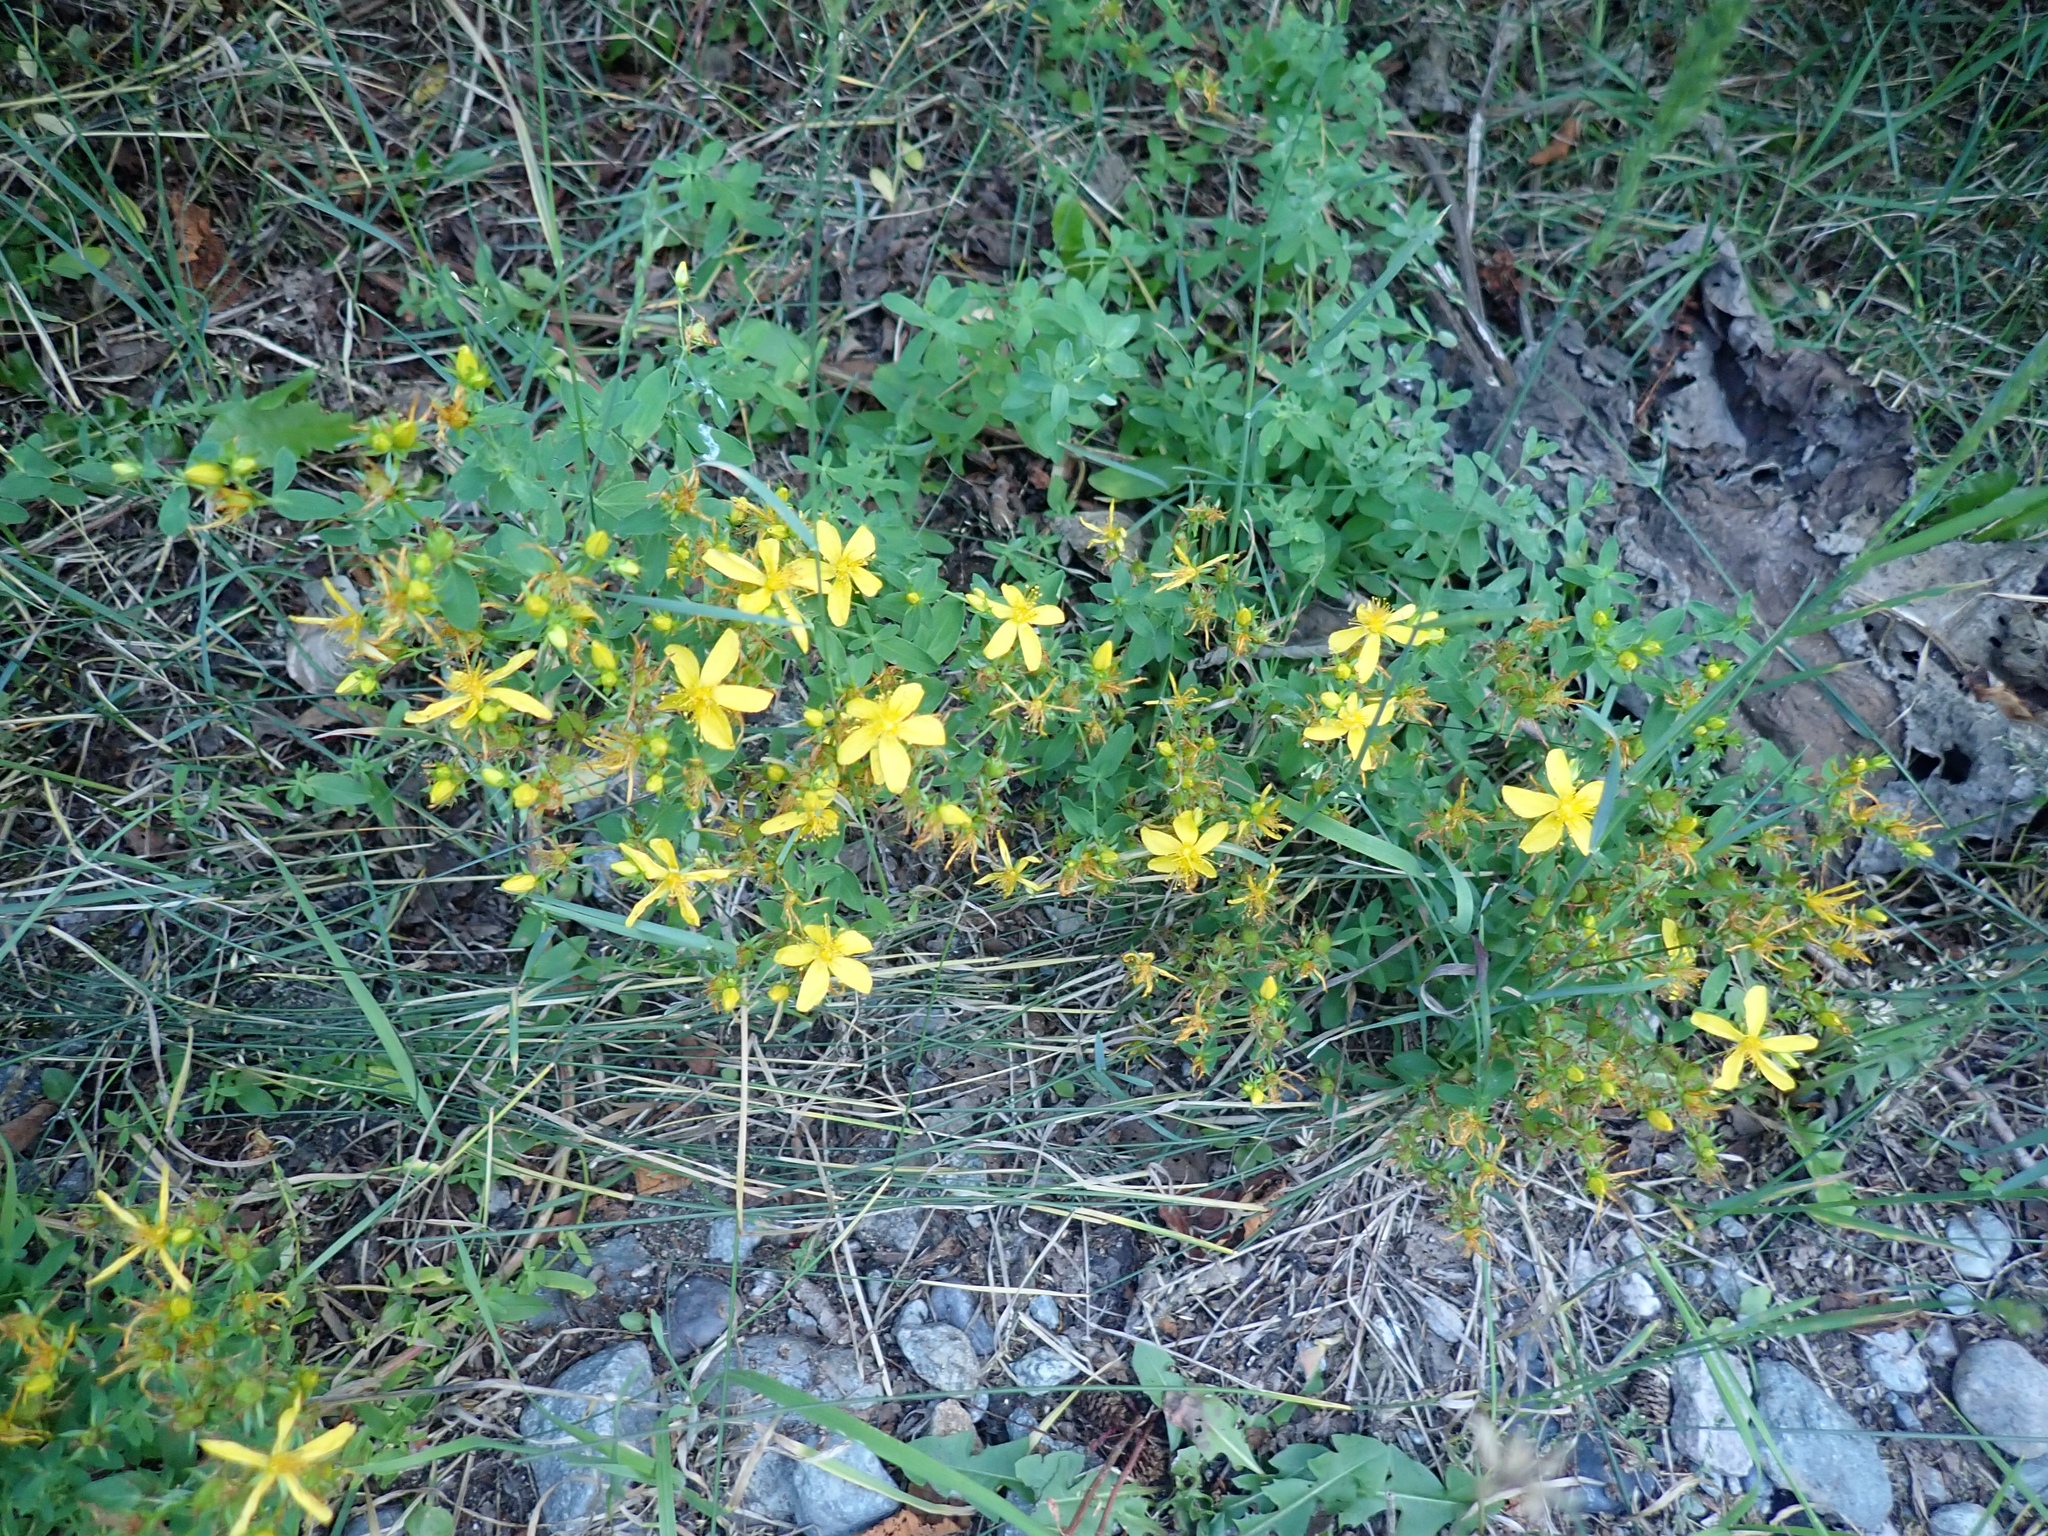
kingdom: Plantae
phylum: Tracheophyta
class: Magnoliopsida
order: Malpighiales
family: Hypericaceae
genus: Hypericum
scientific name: Hypericum perforatum
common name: Common st. johnswort
